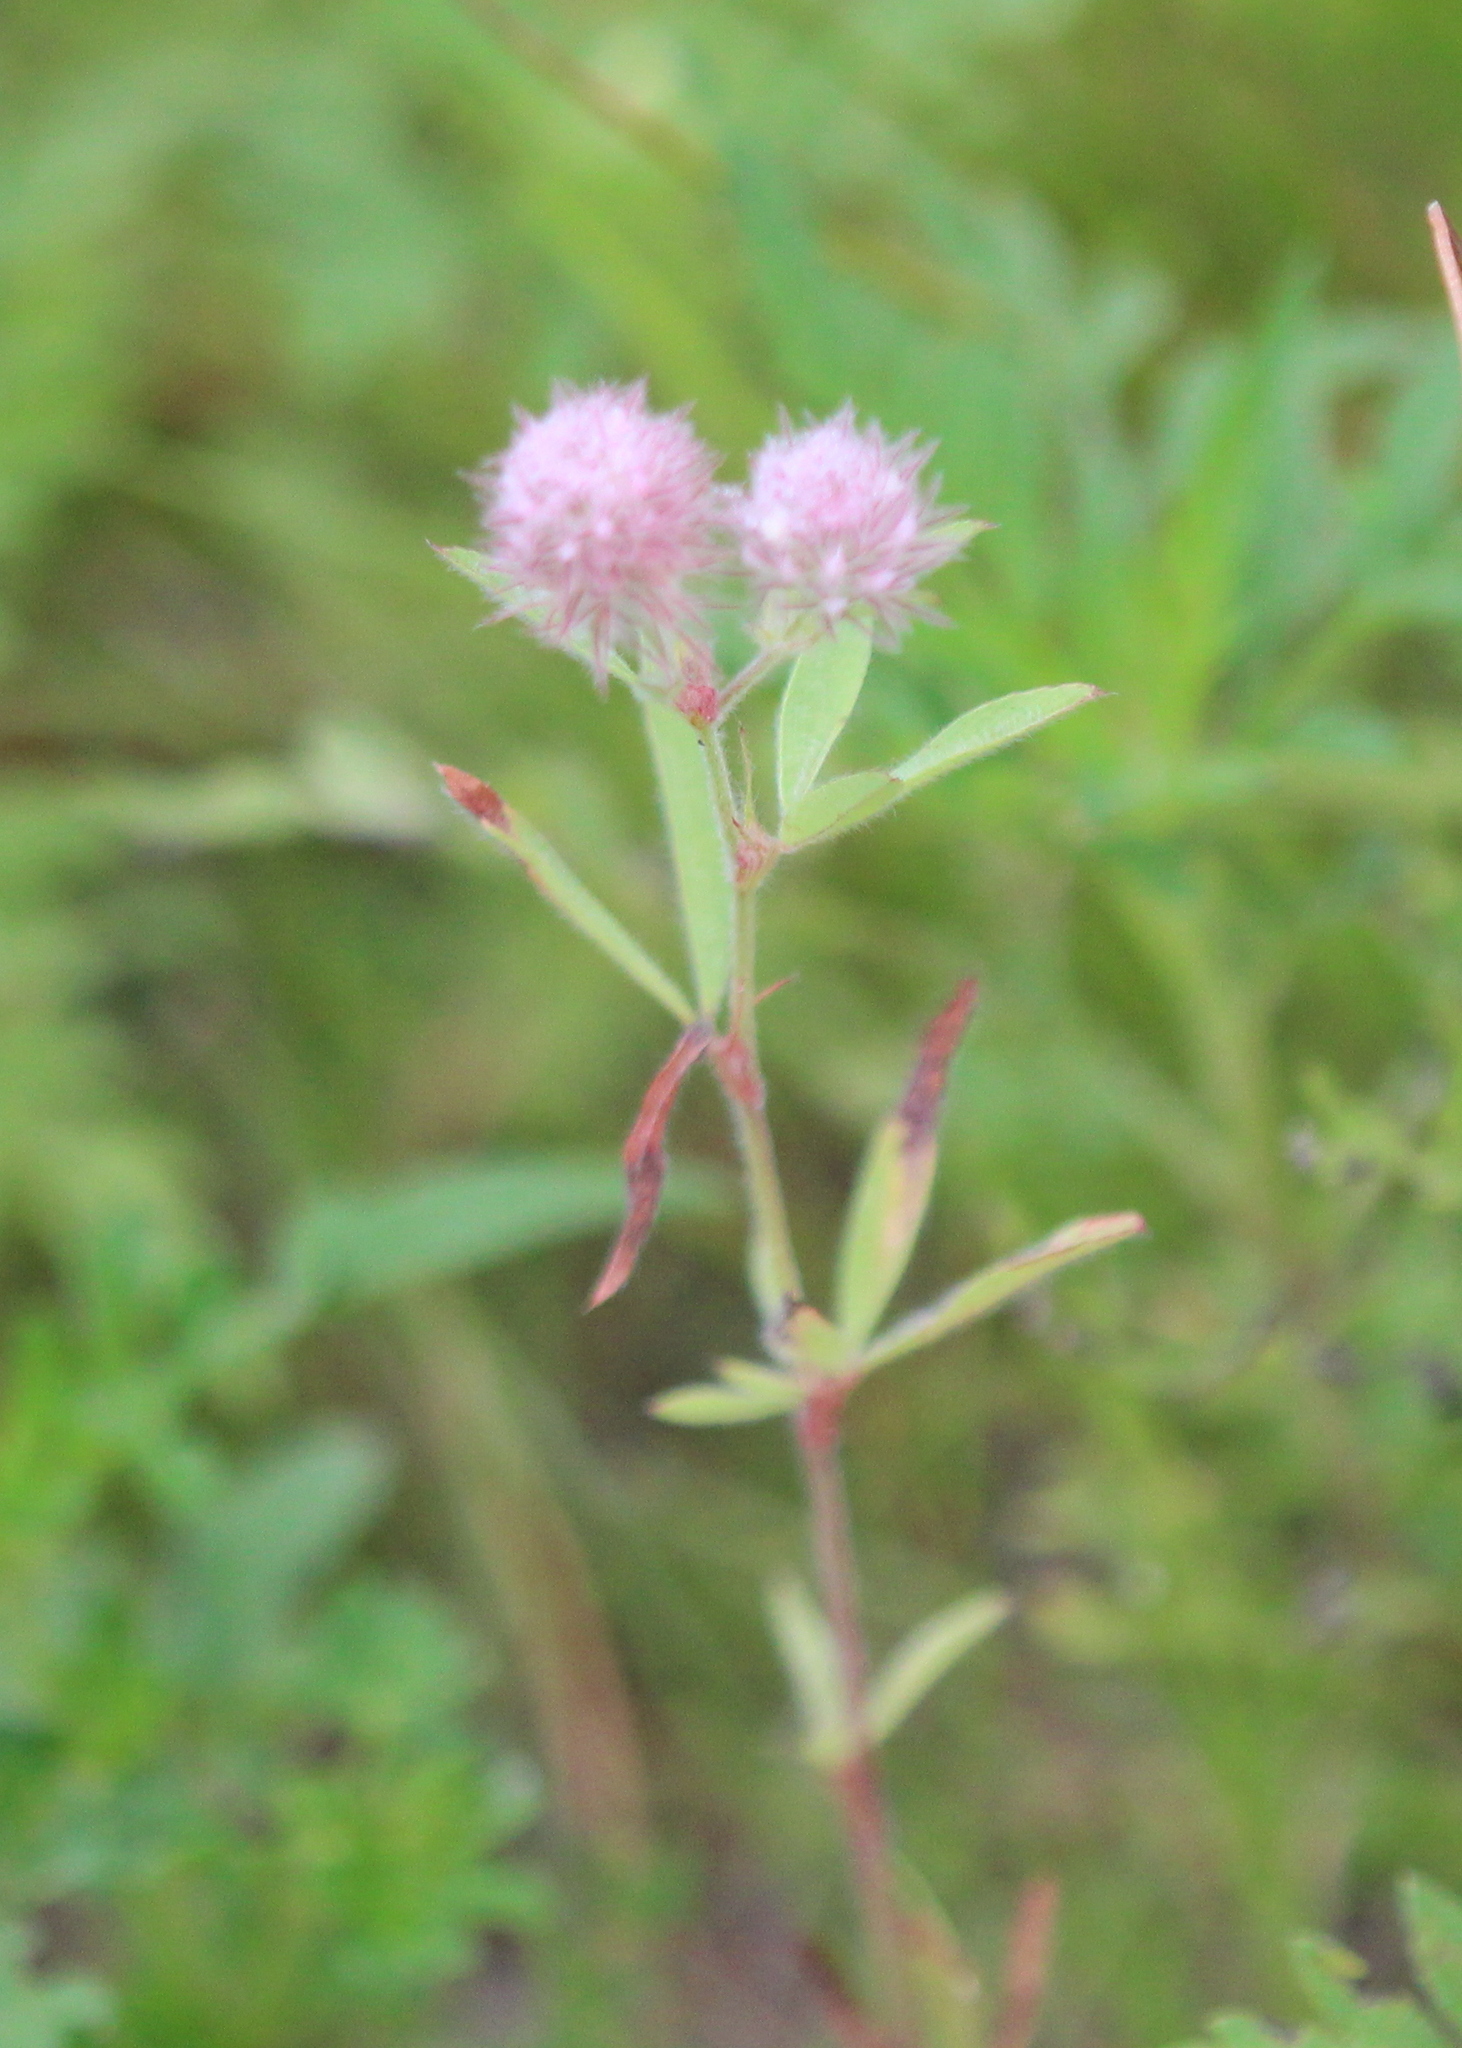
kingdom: Plantae
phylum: Tracheophyta
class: Magnoliopsida
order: Fabales
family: Fabaceae
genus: Trifolium
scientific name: Trifolium arvense
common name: Hare's-foot clover
